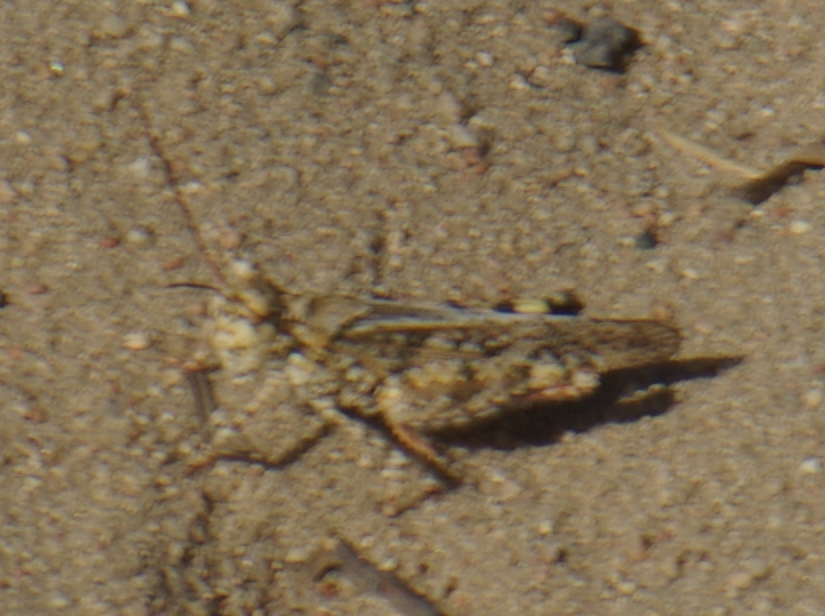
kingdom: Animalia
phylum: Arthropoda
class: Insecta
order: Orthoptera
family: Acrididae
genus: Spharagemon
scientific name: Spharagemon collare
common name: Mottled sand grasshopper
